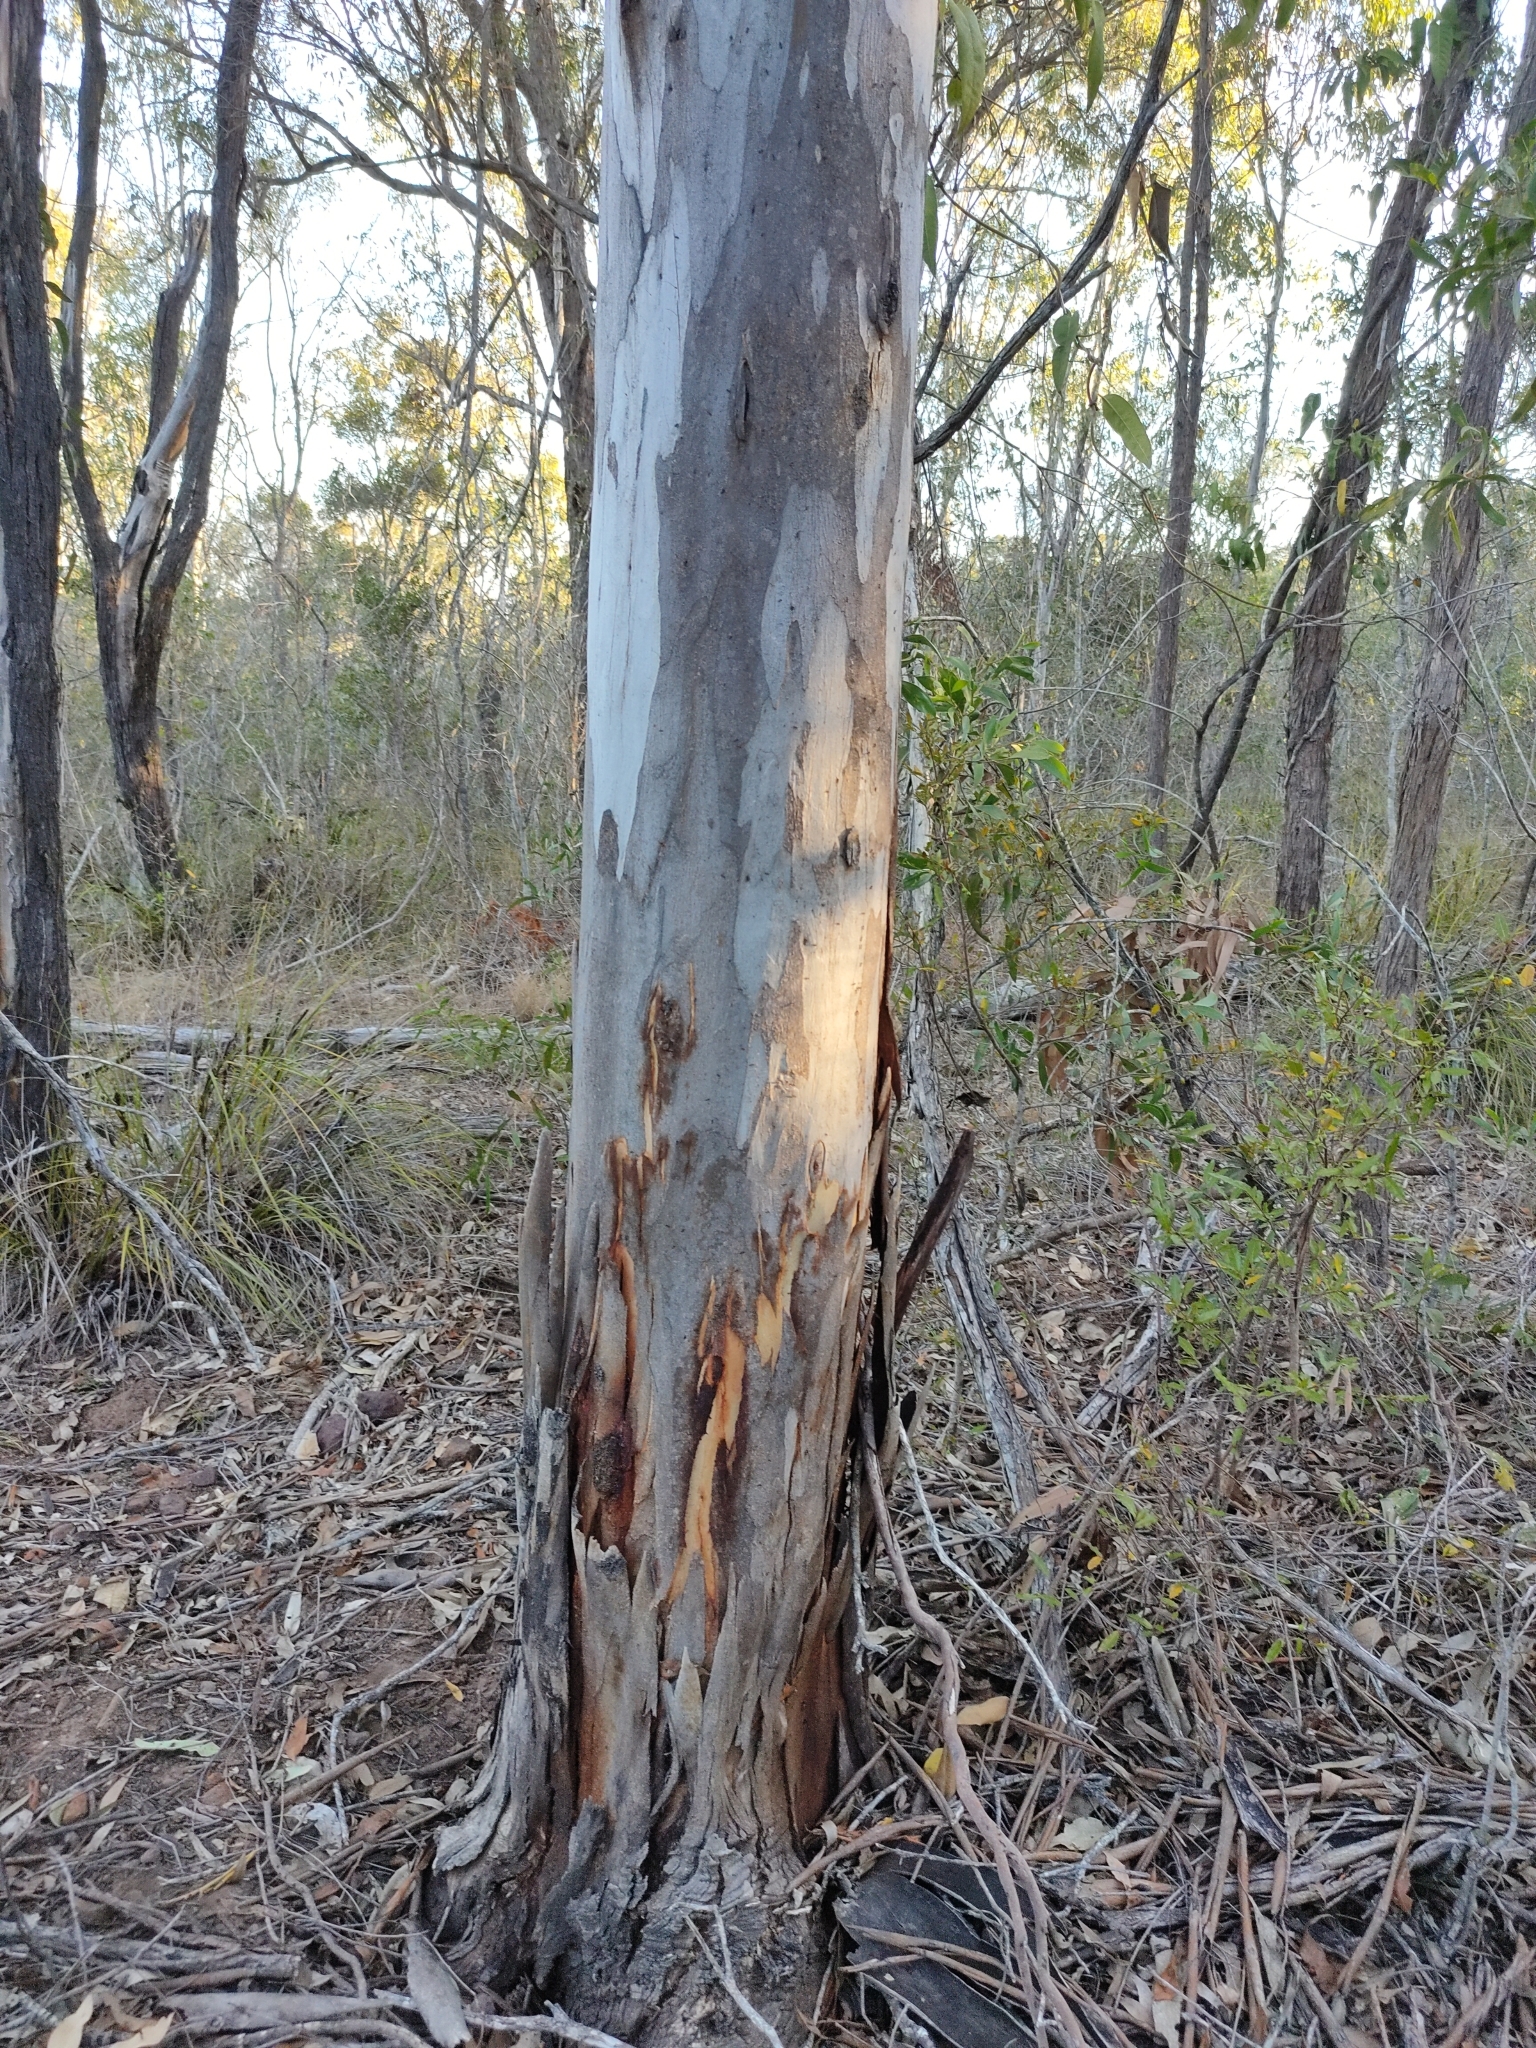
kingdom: Plantae
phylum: Tracheophyta
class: Magnoliopsida
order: Myrtales
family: Myrtaceae
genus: Eucalyptus
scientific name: Eucalyptus tereticornis
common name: Forest redgum
